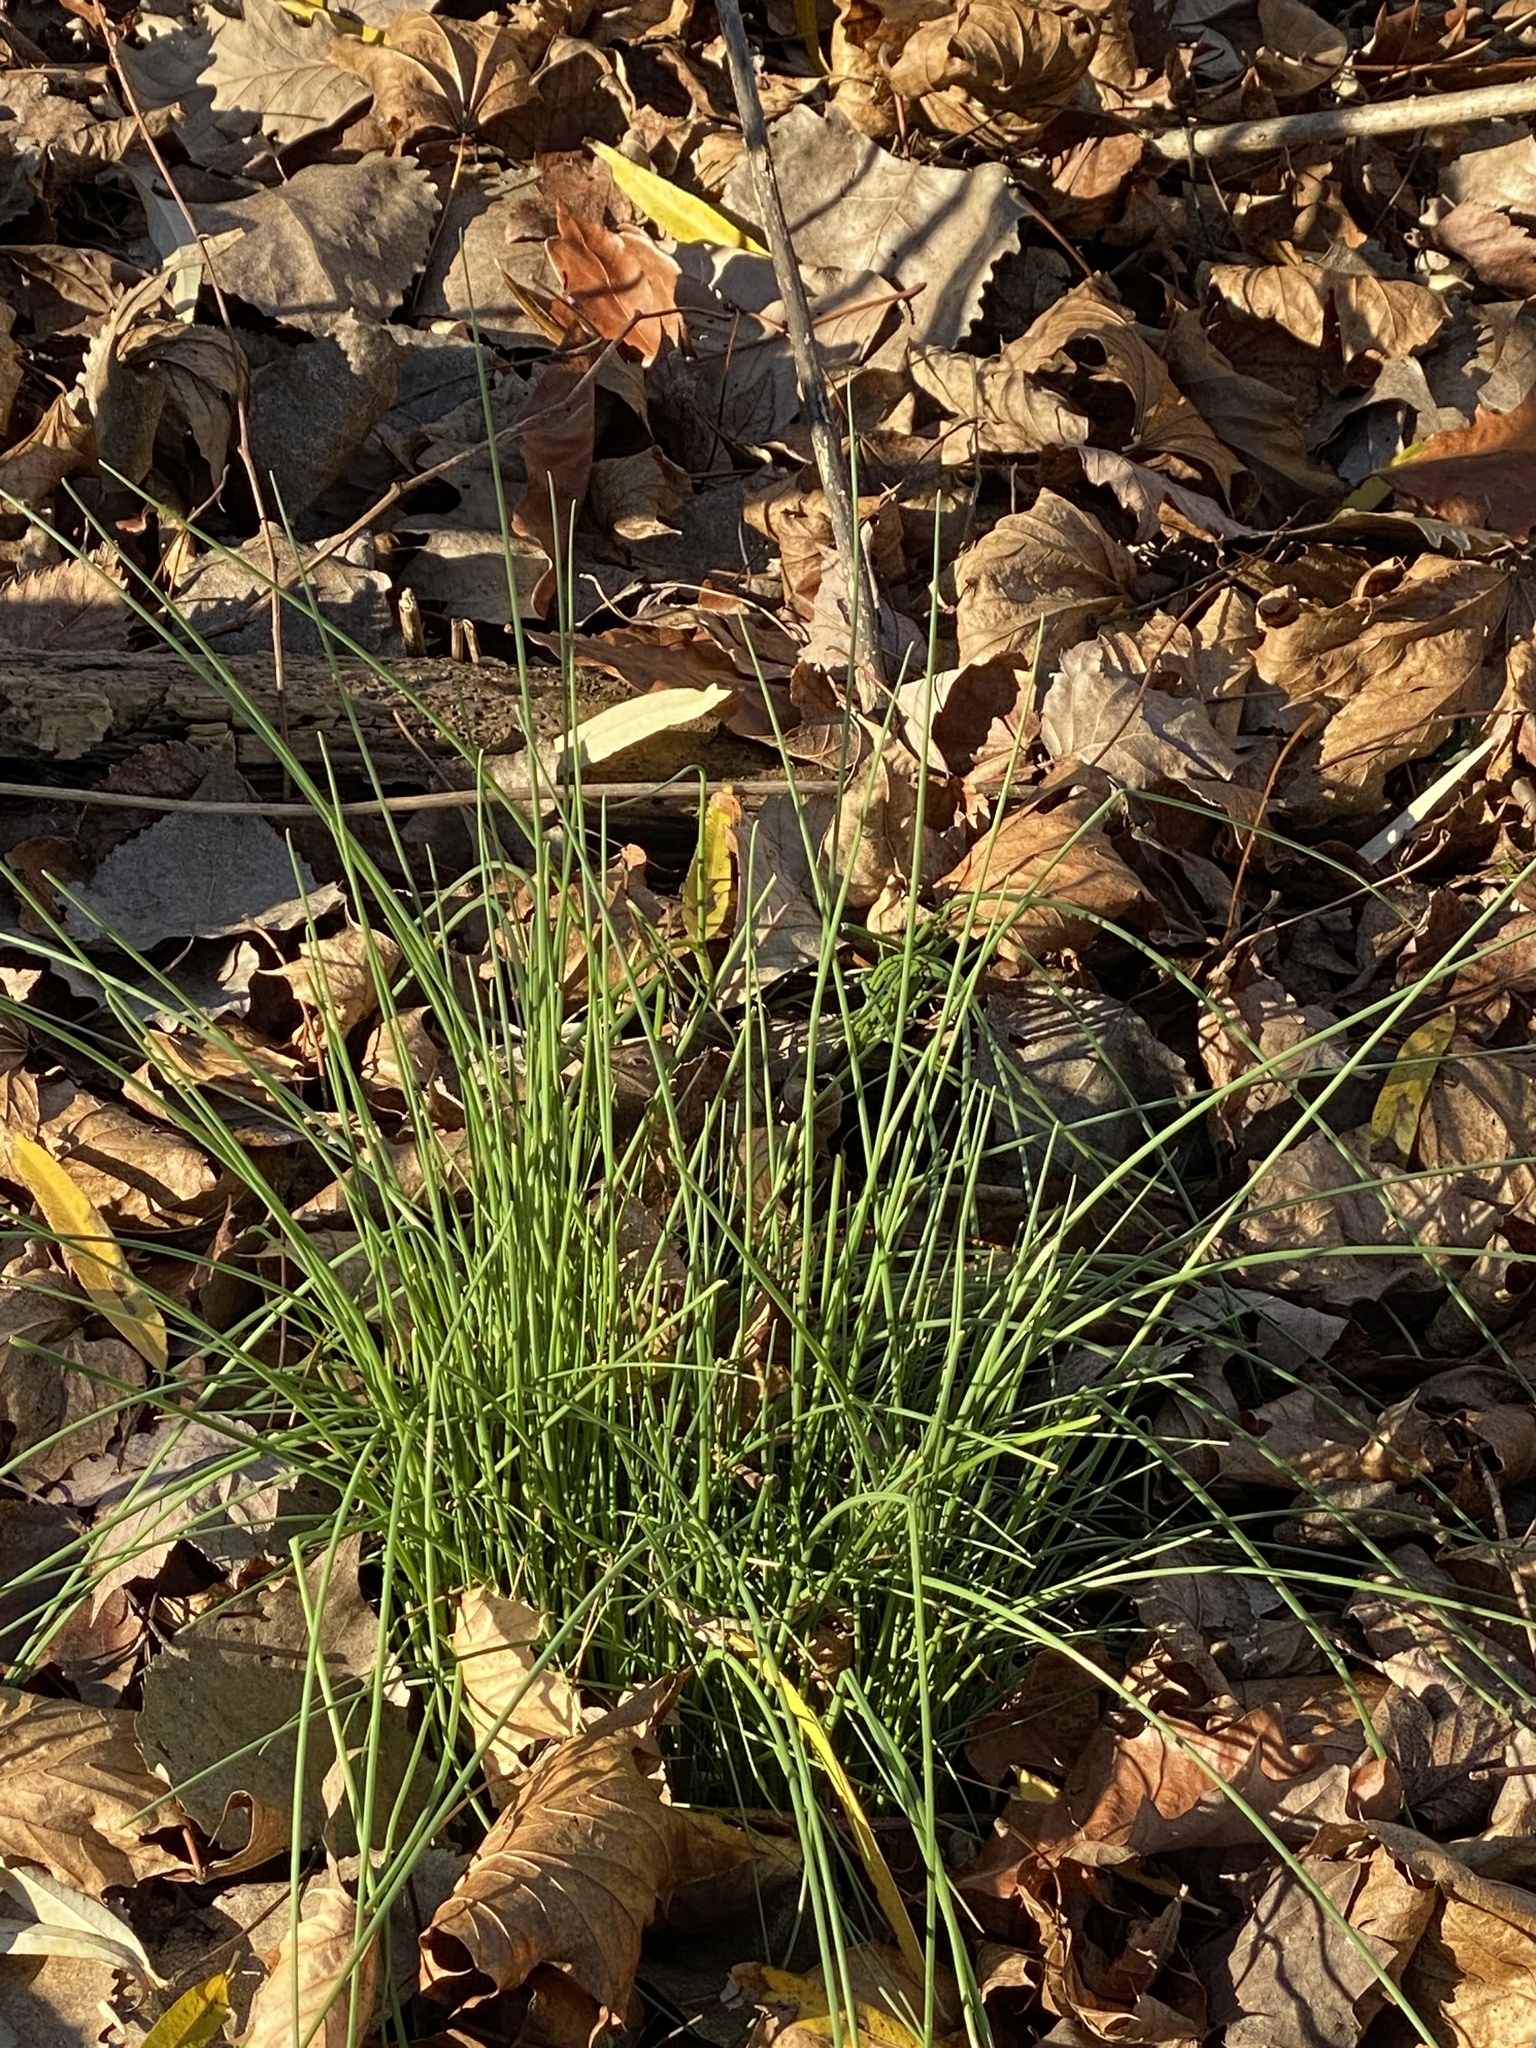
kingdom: Plantae
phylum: Tracheophyta
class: Liliopsida
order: Asparagales
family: Amaryllidaceae
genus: Allium
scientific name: Allium vineale
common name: Crow garlic
